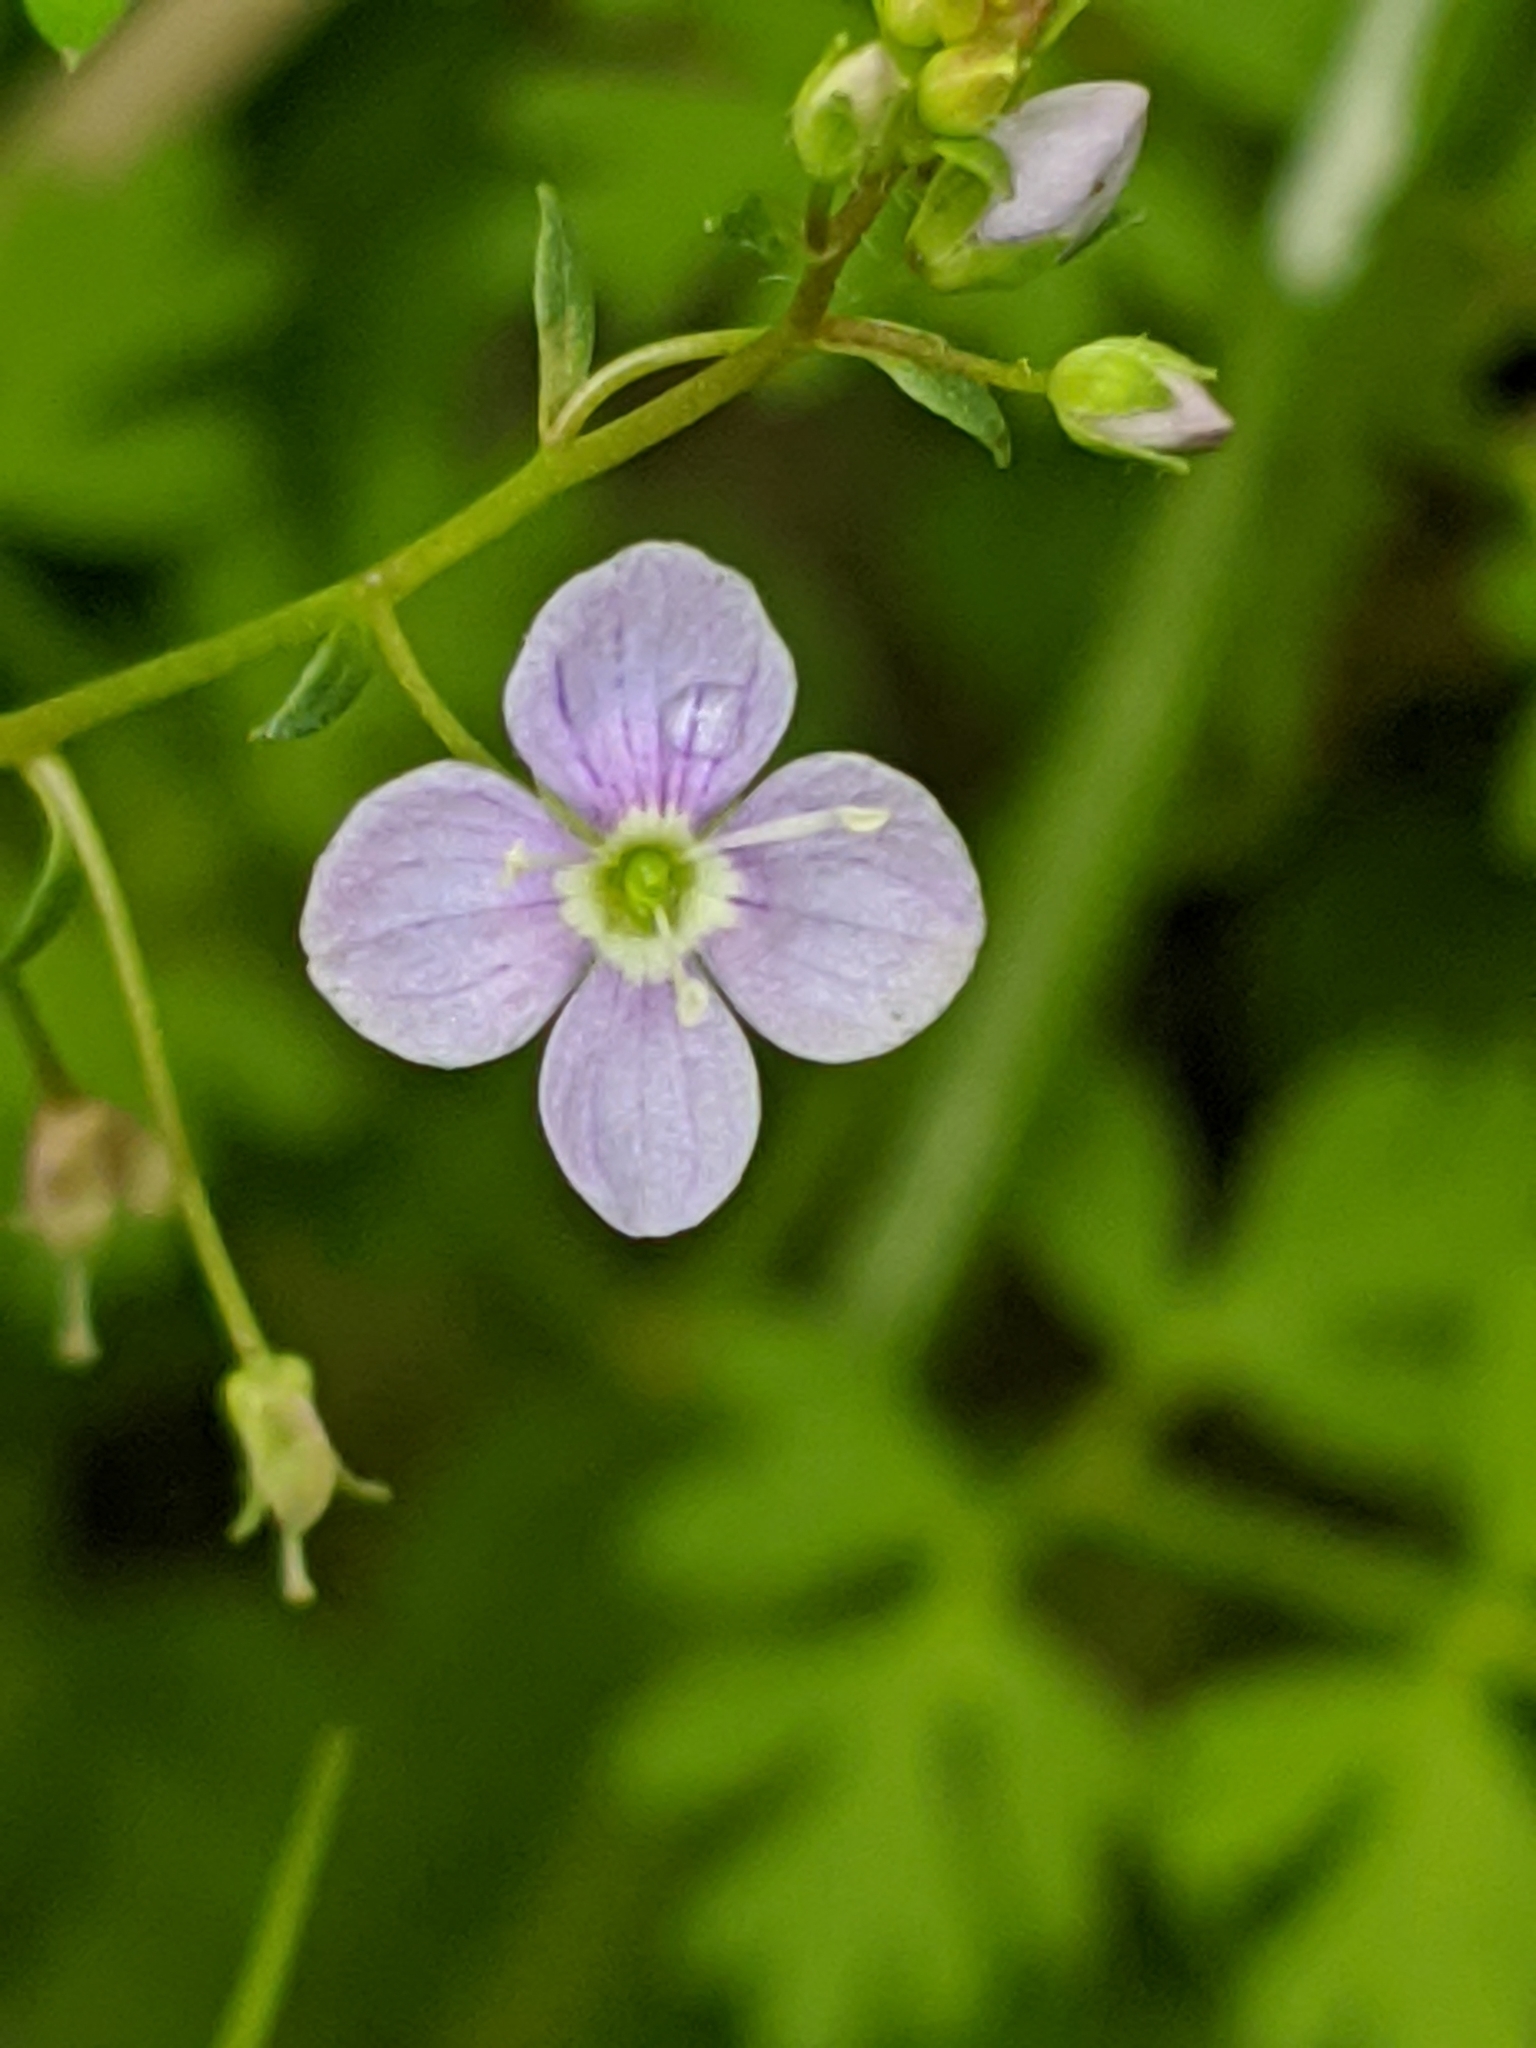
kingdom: Plantae
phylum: Tracheophyta
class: Magnoliopsida
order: Lamiales
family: Plantaginaceae
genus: Veronica
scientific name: Veronica scutellata
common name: Marsh speedwell
